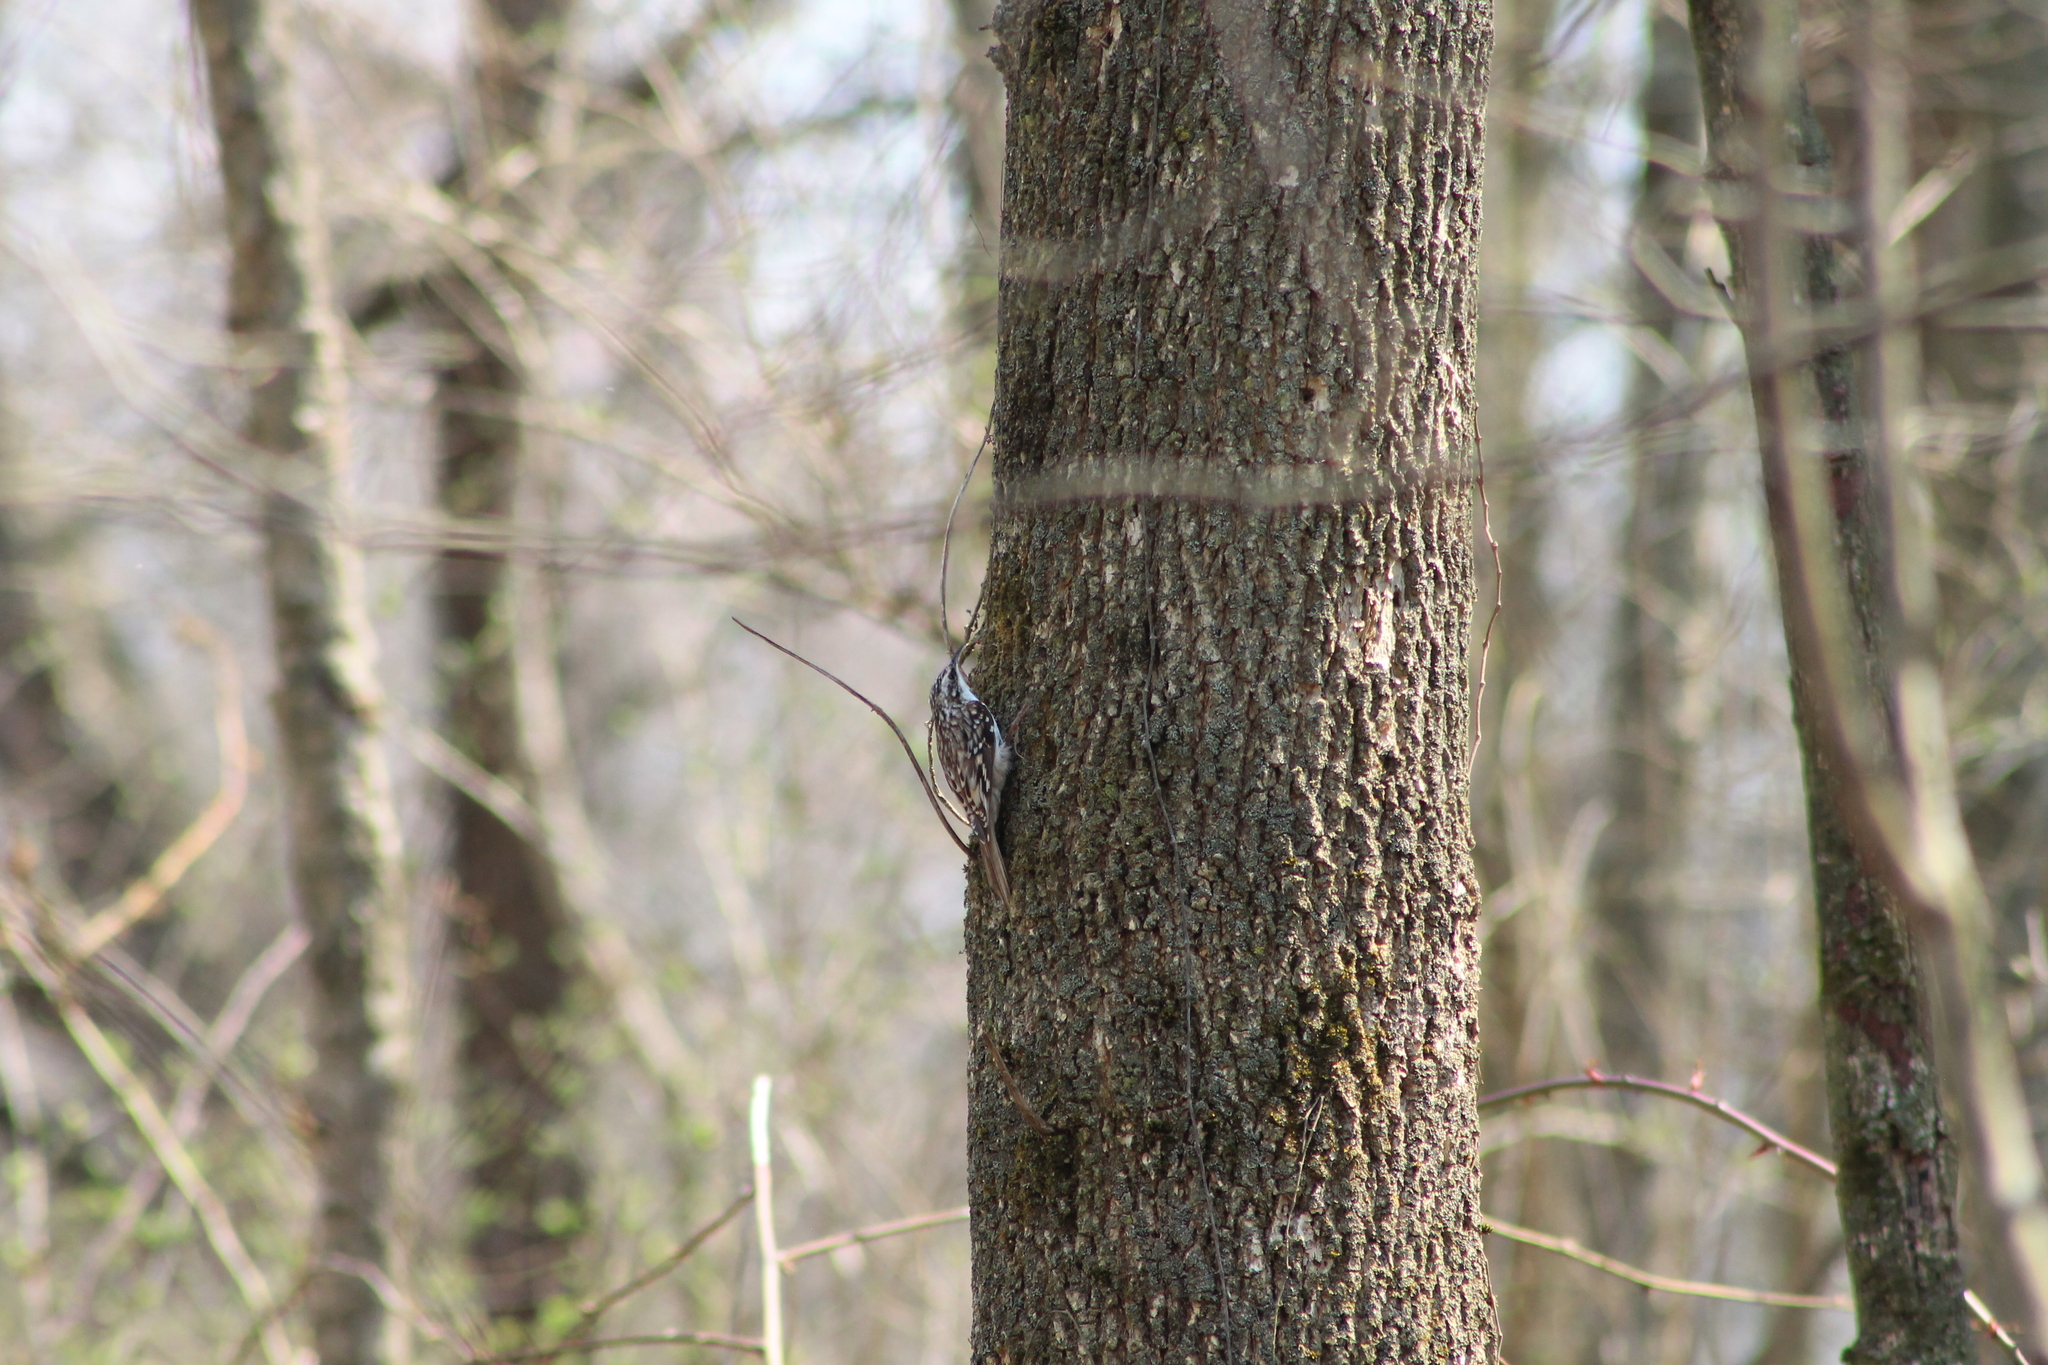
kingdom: Animalia
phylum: Chordata
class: Aves
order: Passeriformes
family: Certhiidae
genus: Certhia
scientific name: Certhia americana
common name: Brown creeper
